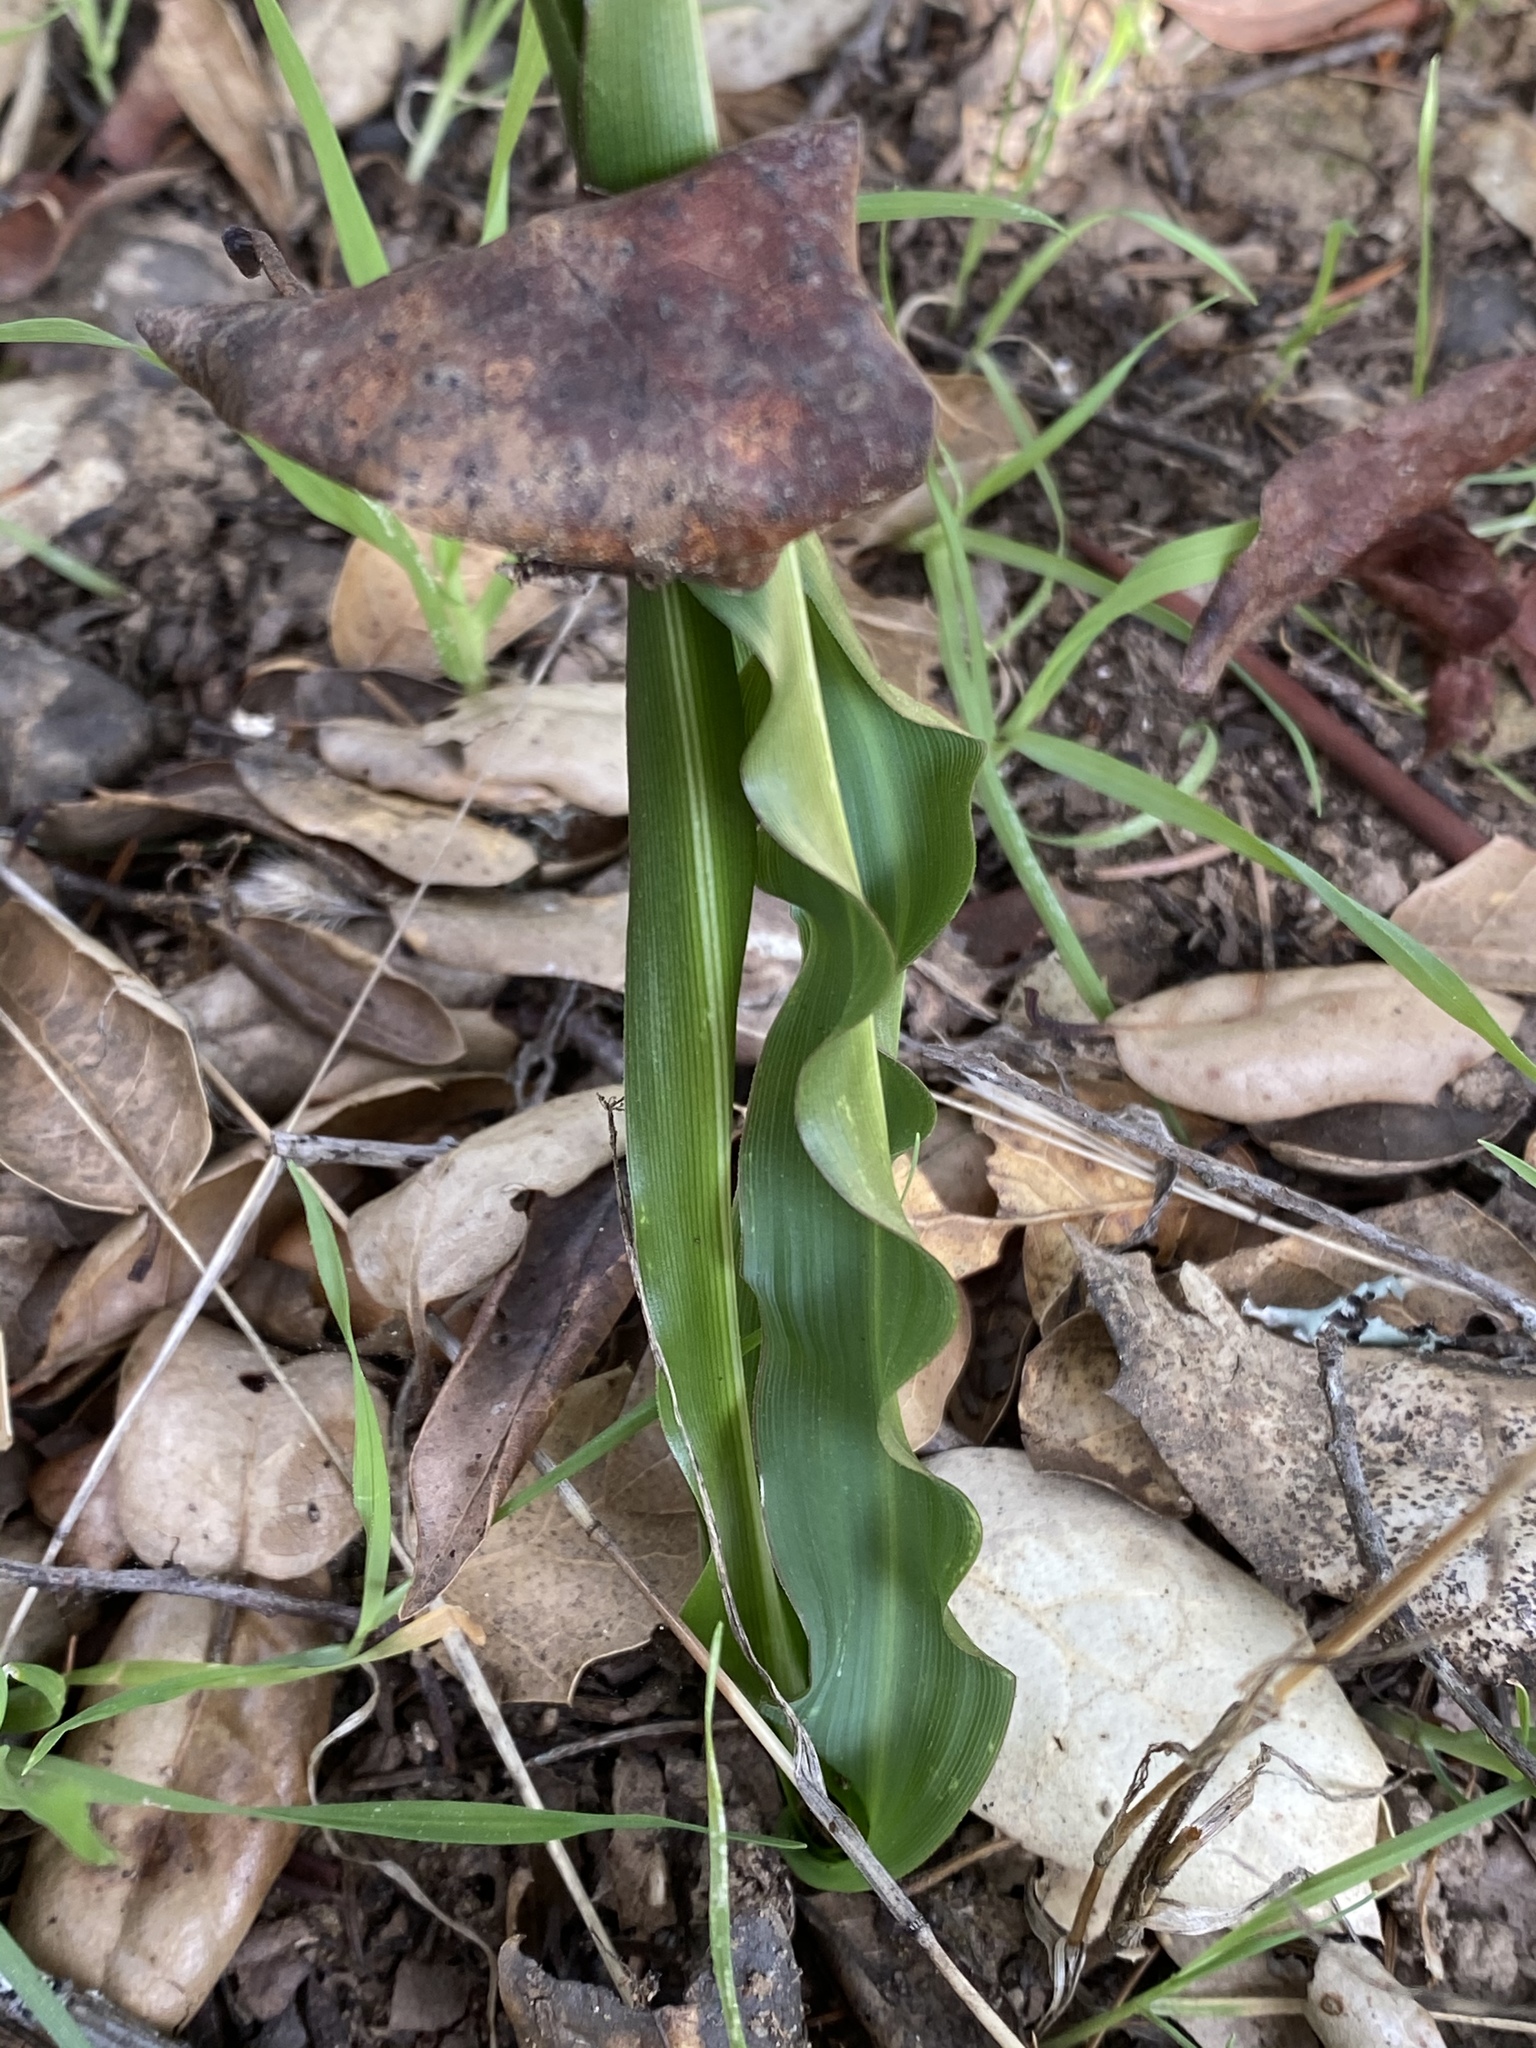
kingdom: Plantae
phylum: Tracheophyta
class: Liliopsida
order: Asparagales
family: Asparagaceae
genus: Chlorogalum
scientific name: Chlorogalum pomeridianum
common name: Amole
